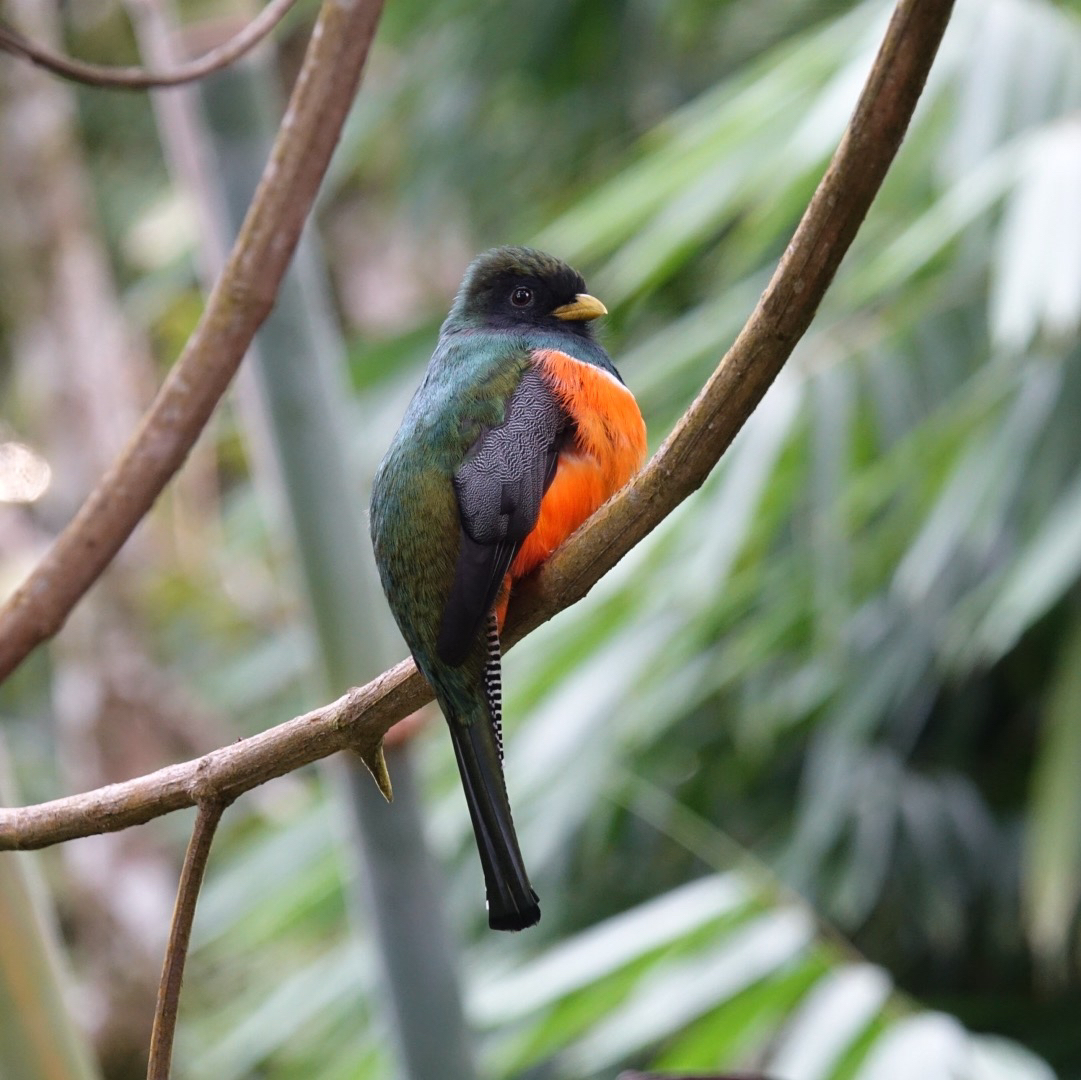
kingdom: Animalia
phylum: Chordata
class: Aves
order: Trogoniformes
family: Trogonidae
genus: Trogon
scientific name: Trogon collaris
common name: Collared trogon
